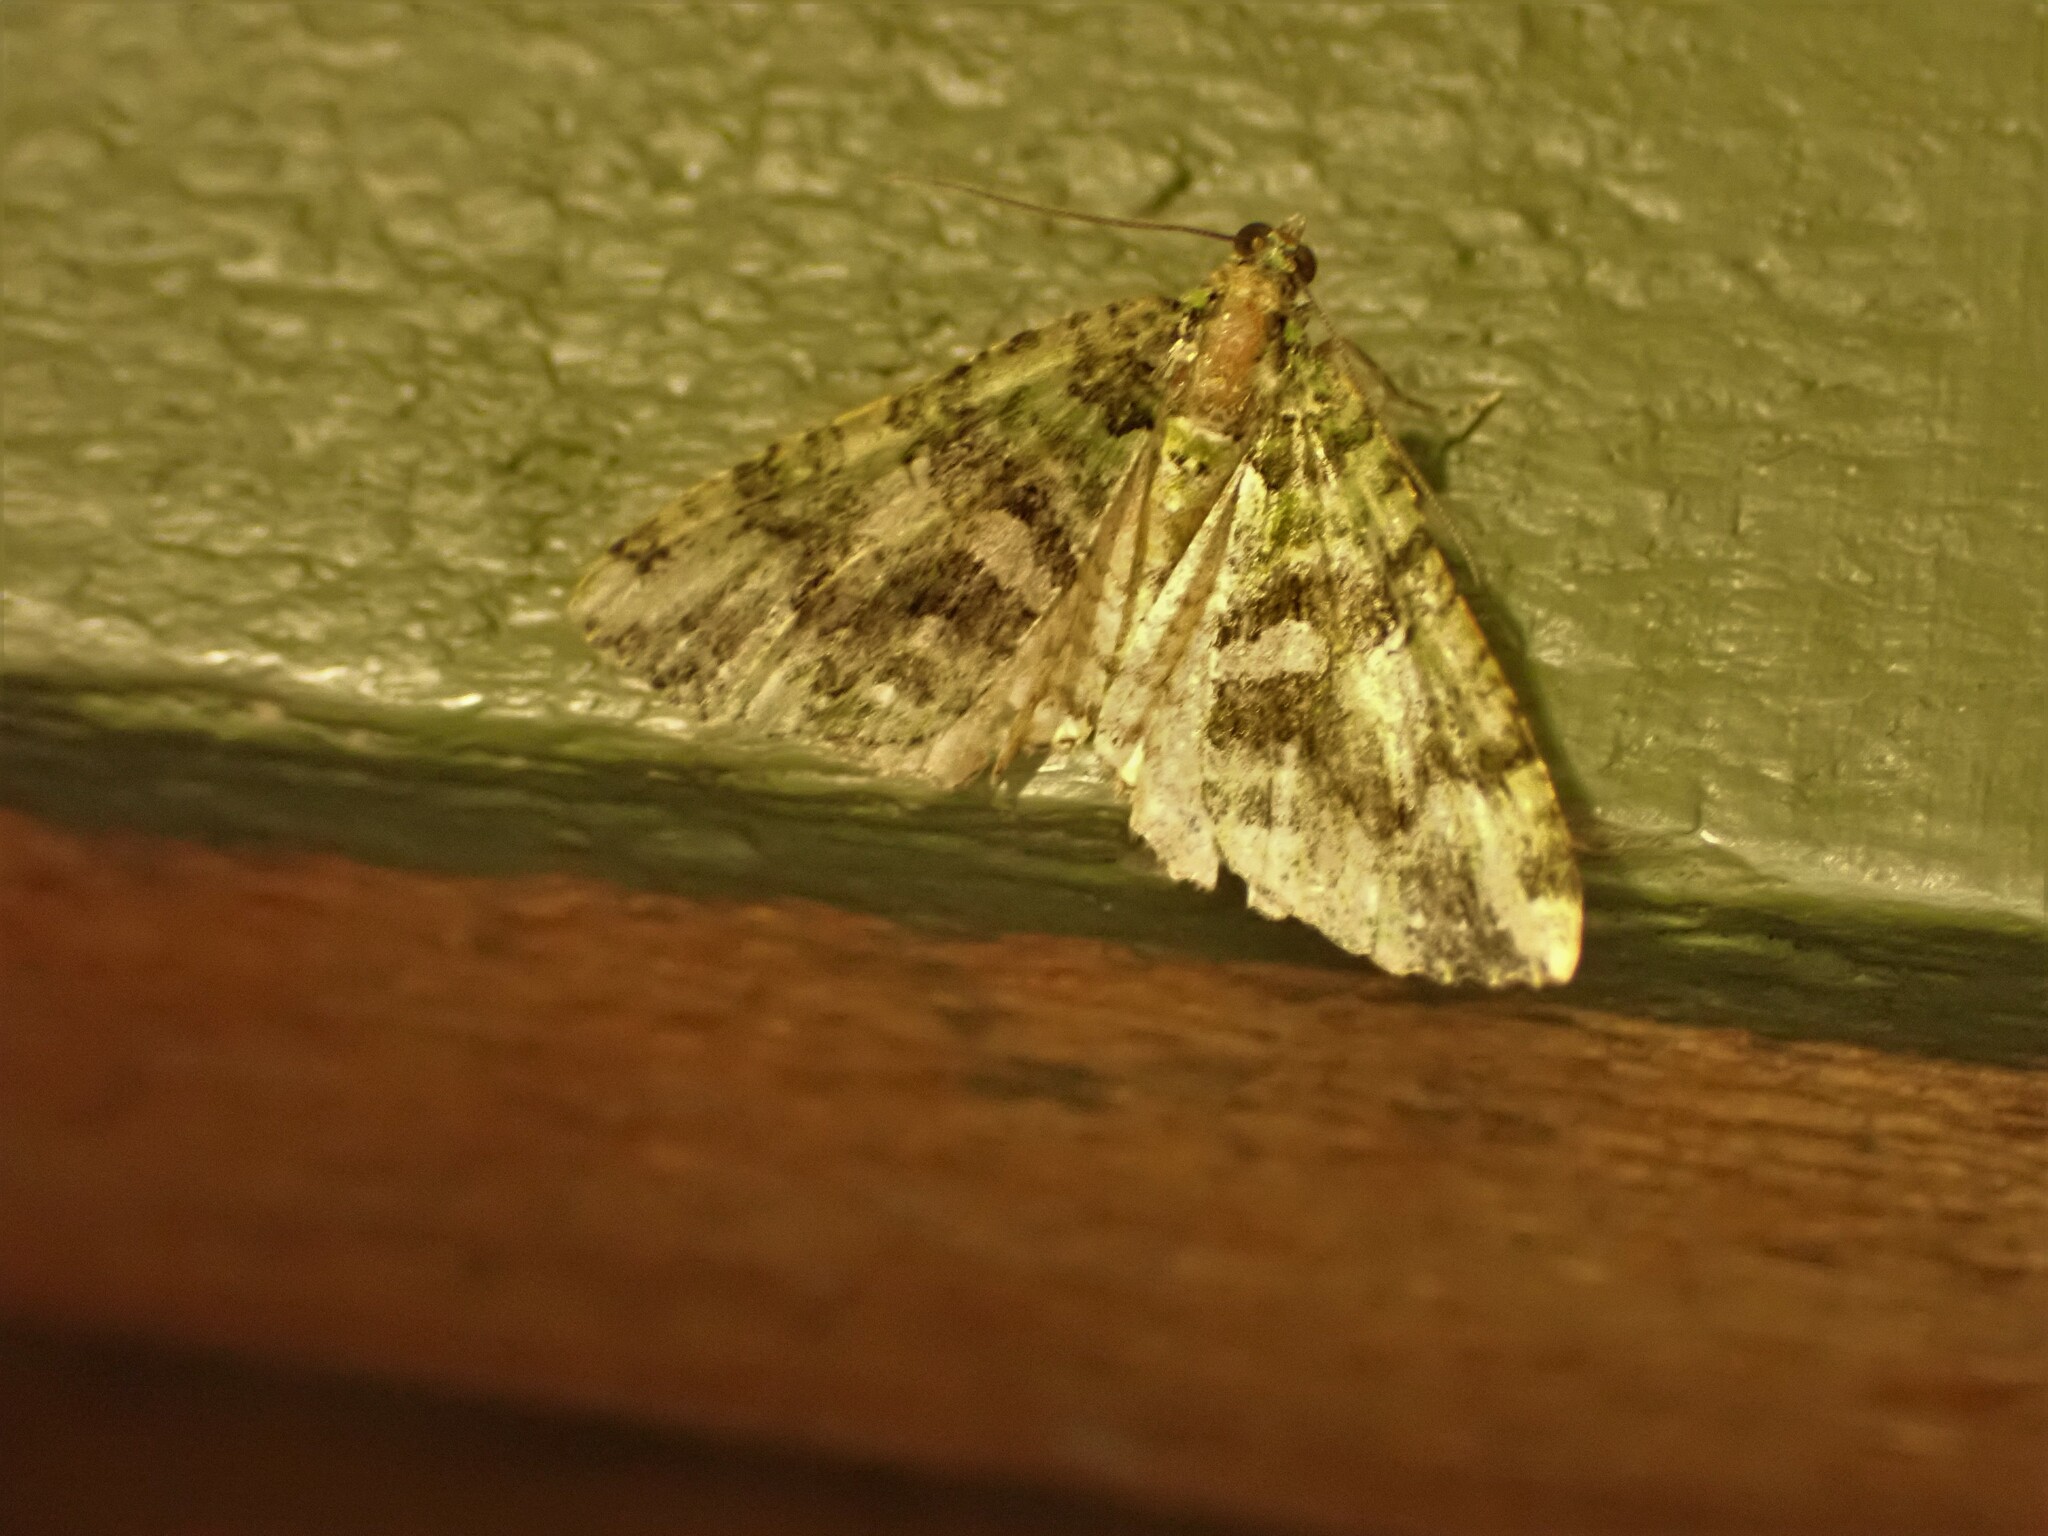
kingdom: Animalia
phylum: Arthropoda
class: Insecta
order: Lepidoptera
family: Geometridae
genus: Austrocidaria
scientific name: Austrocidaria similata
